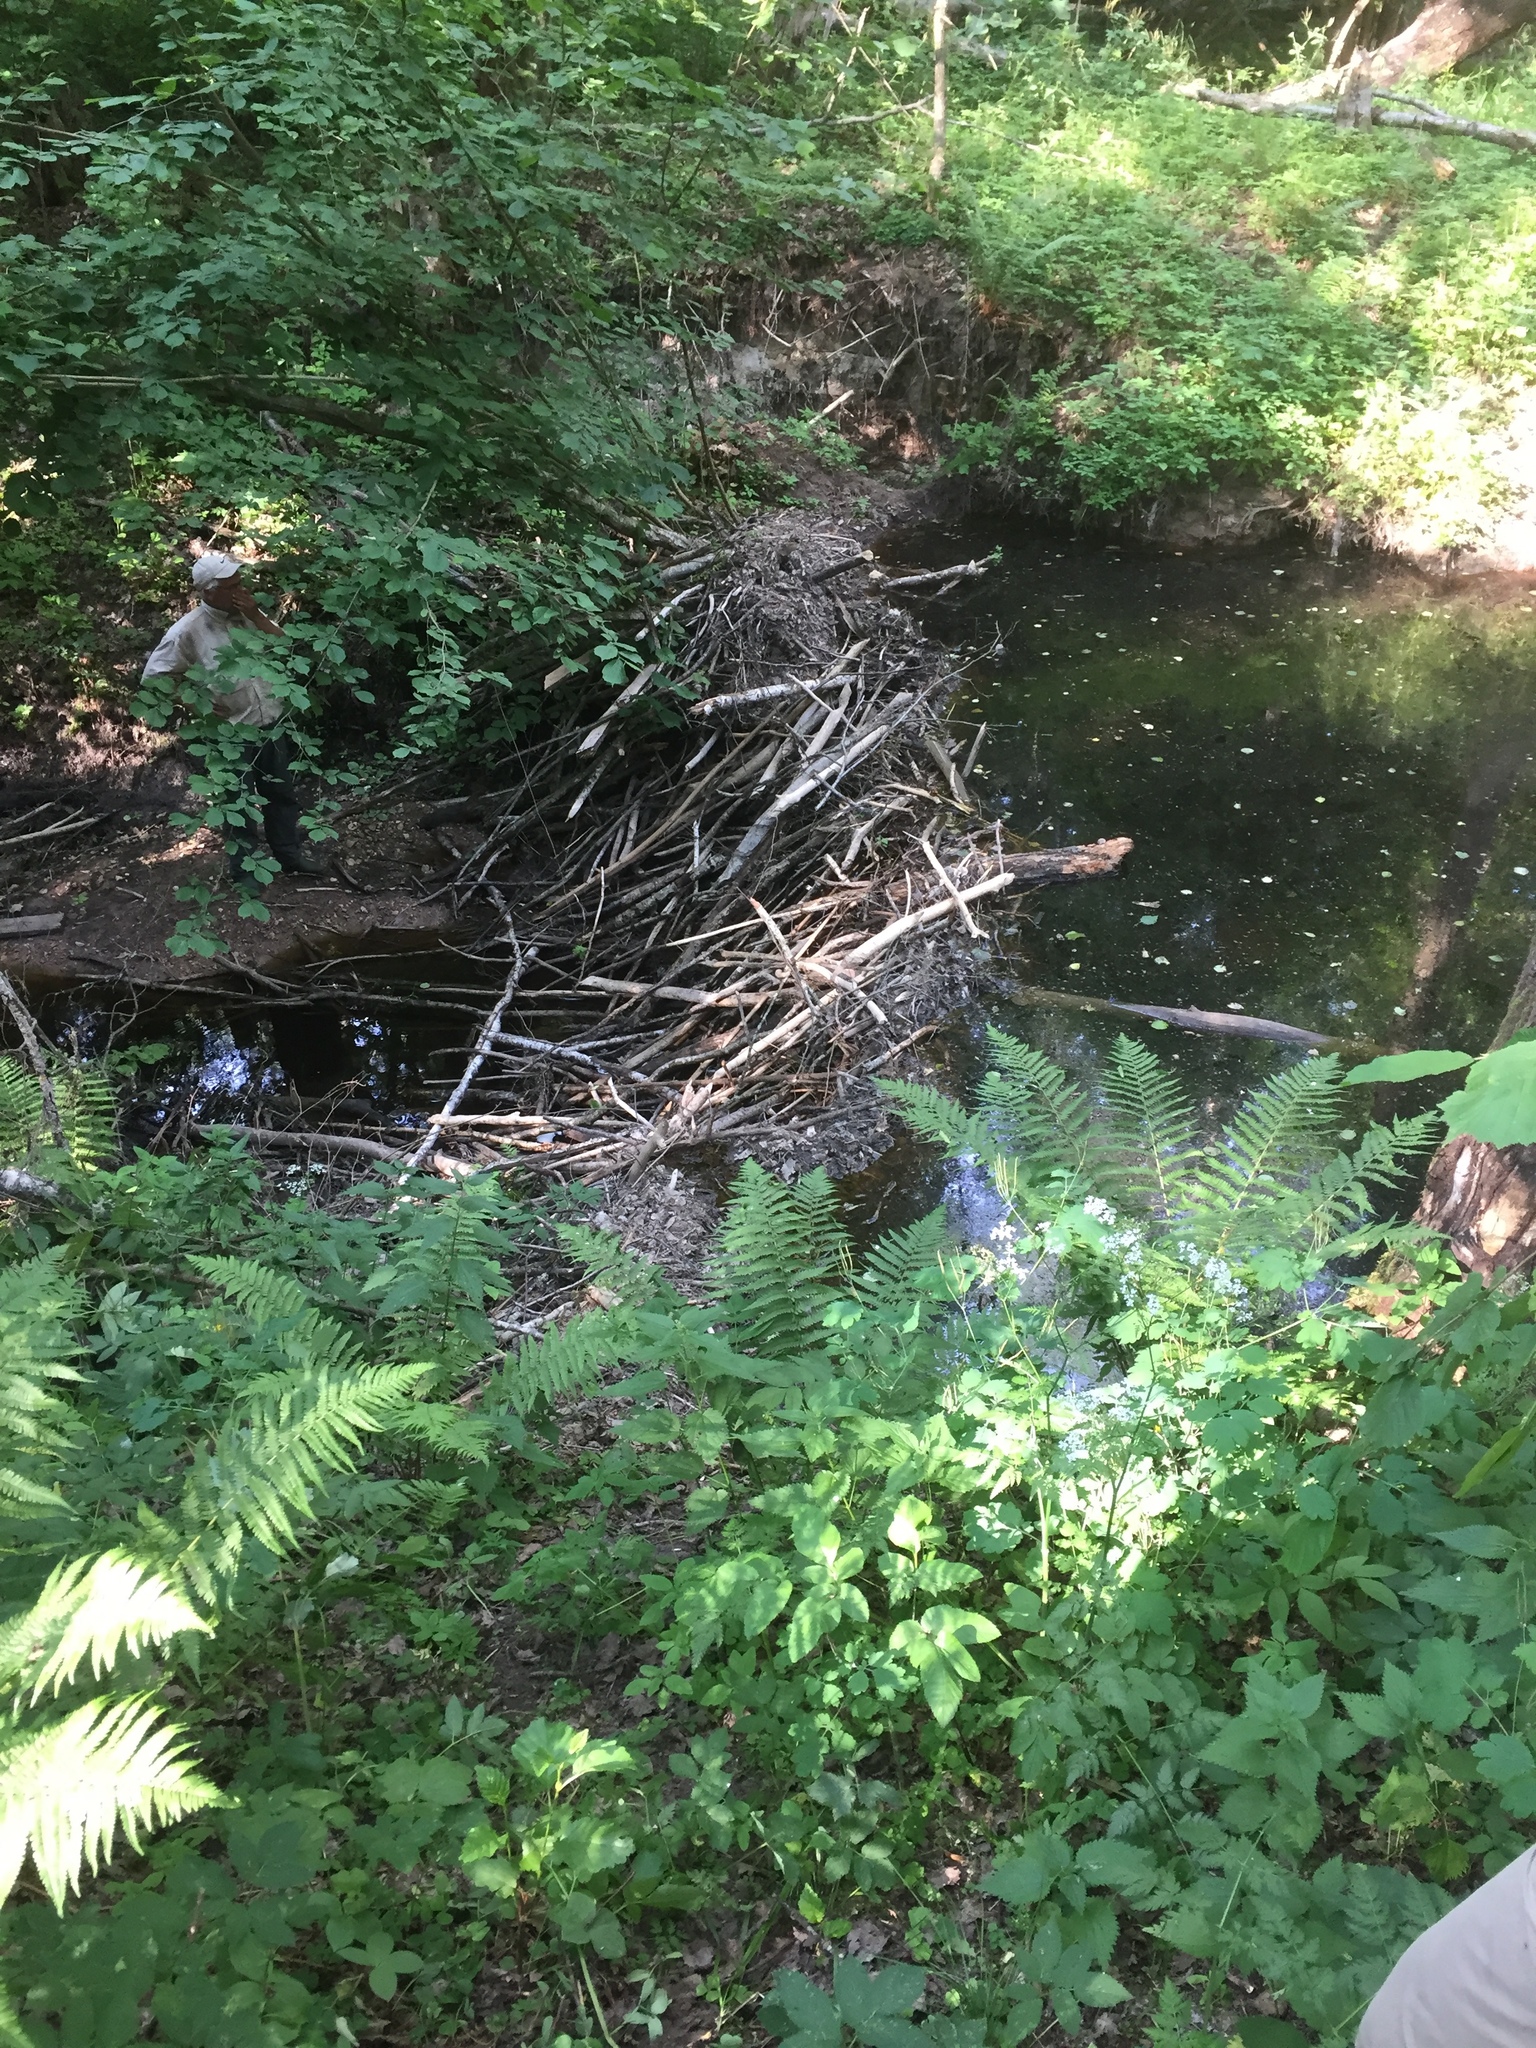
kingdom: Animalia
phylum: Chordata
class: Mammalia
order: Rodentia
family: Castoridae
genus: Castor
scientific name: Castor fiber
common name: Eurasian beaver
